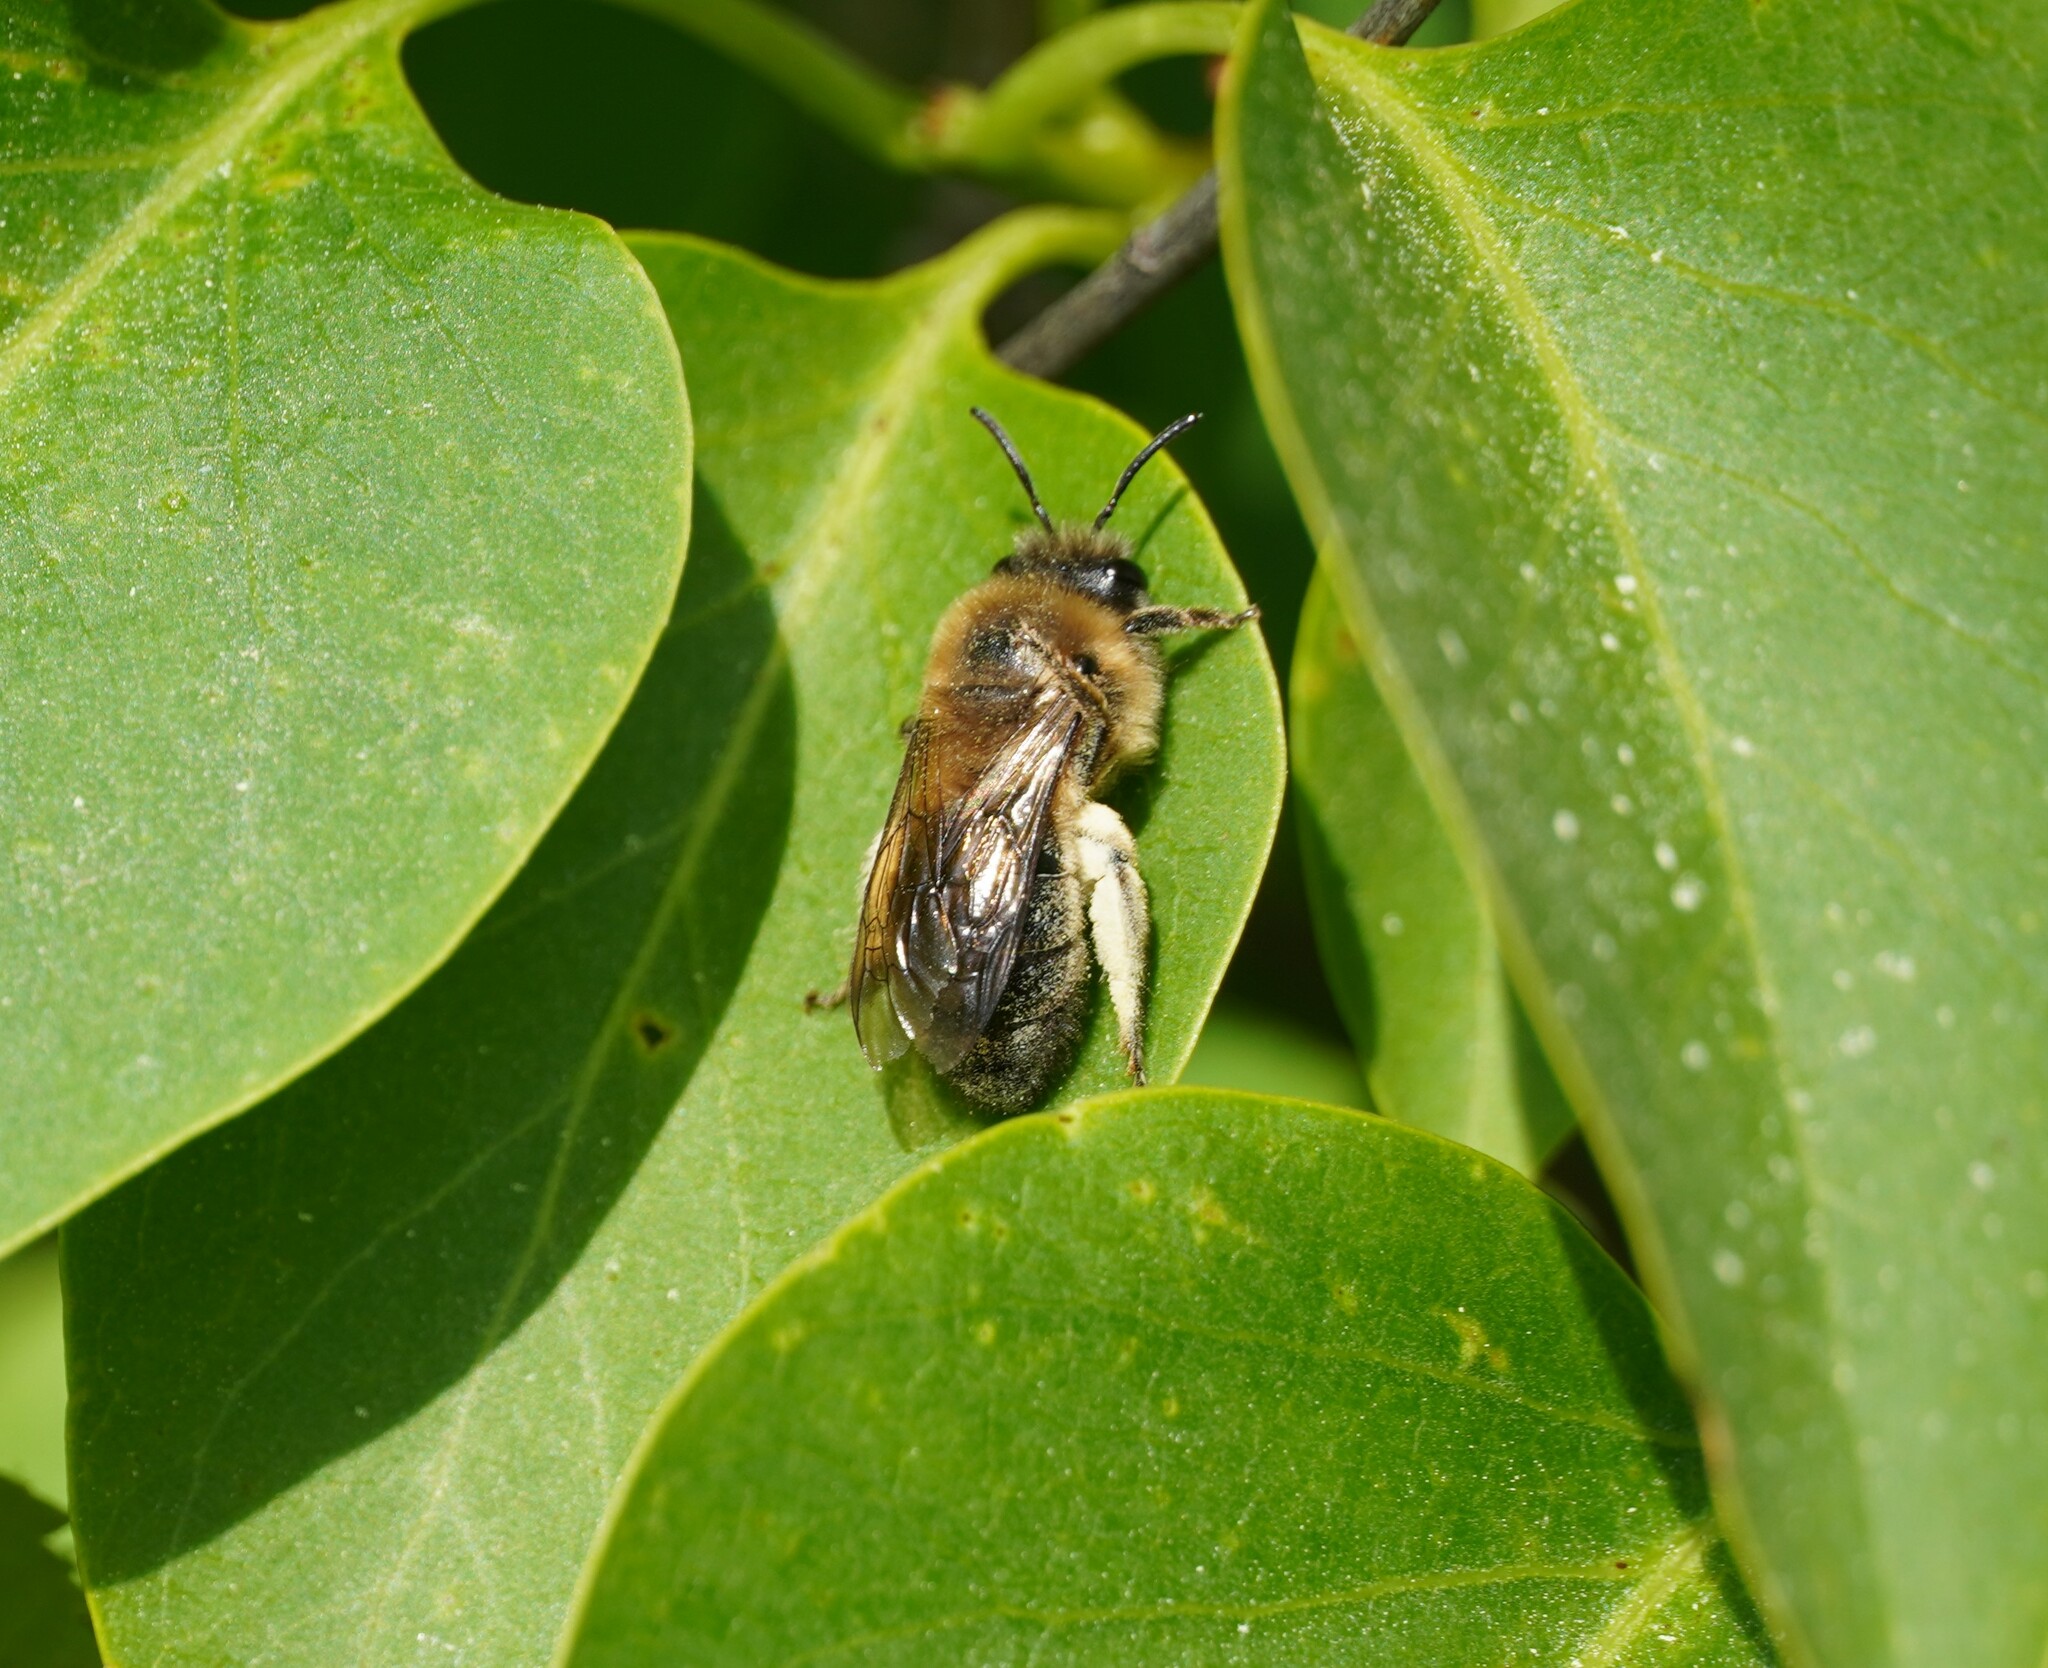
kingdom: Animalia
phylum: Arthropoda
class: Insecta
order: Hymenoptera
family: Colletidae
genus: Colletes
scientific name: Colletes cunicularius
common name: Early colletes
